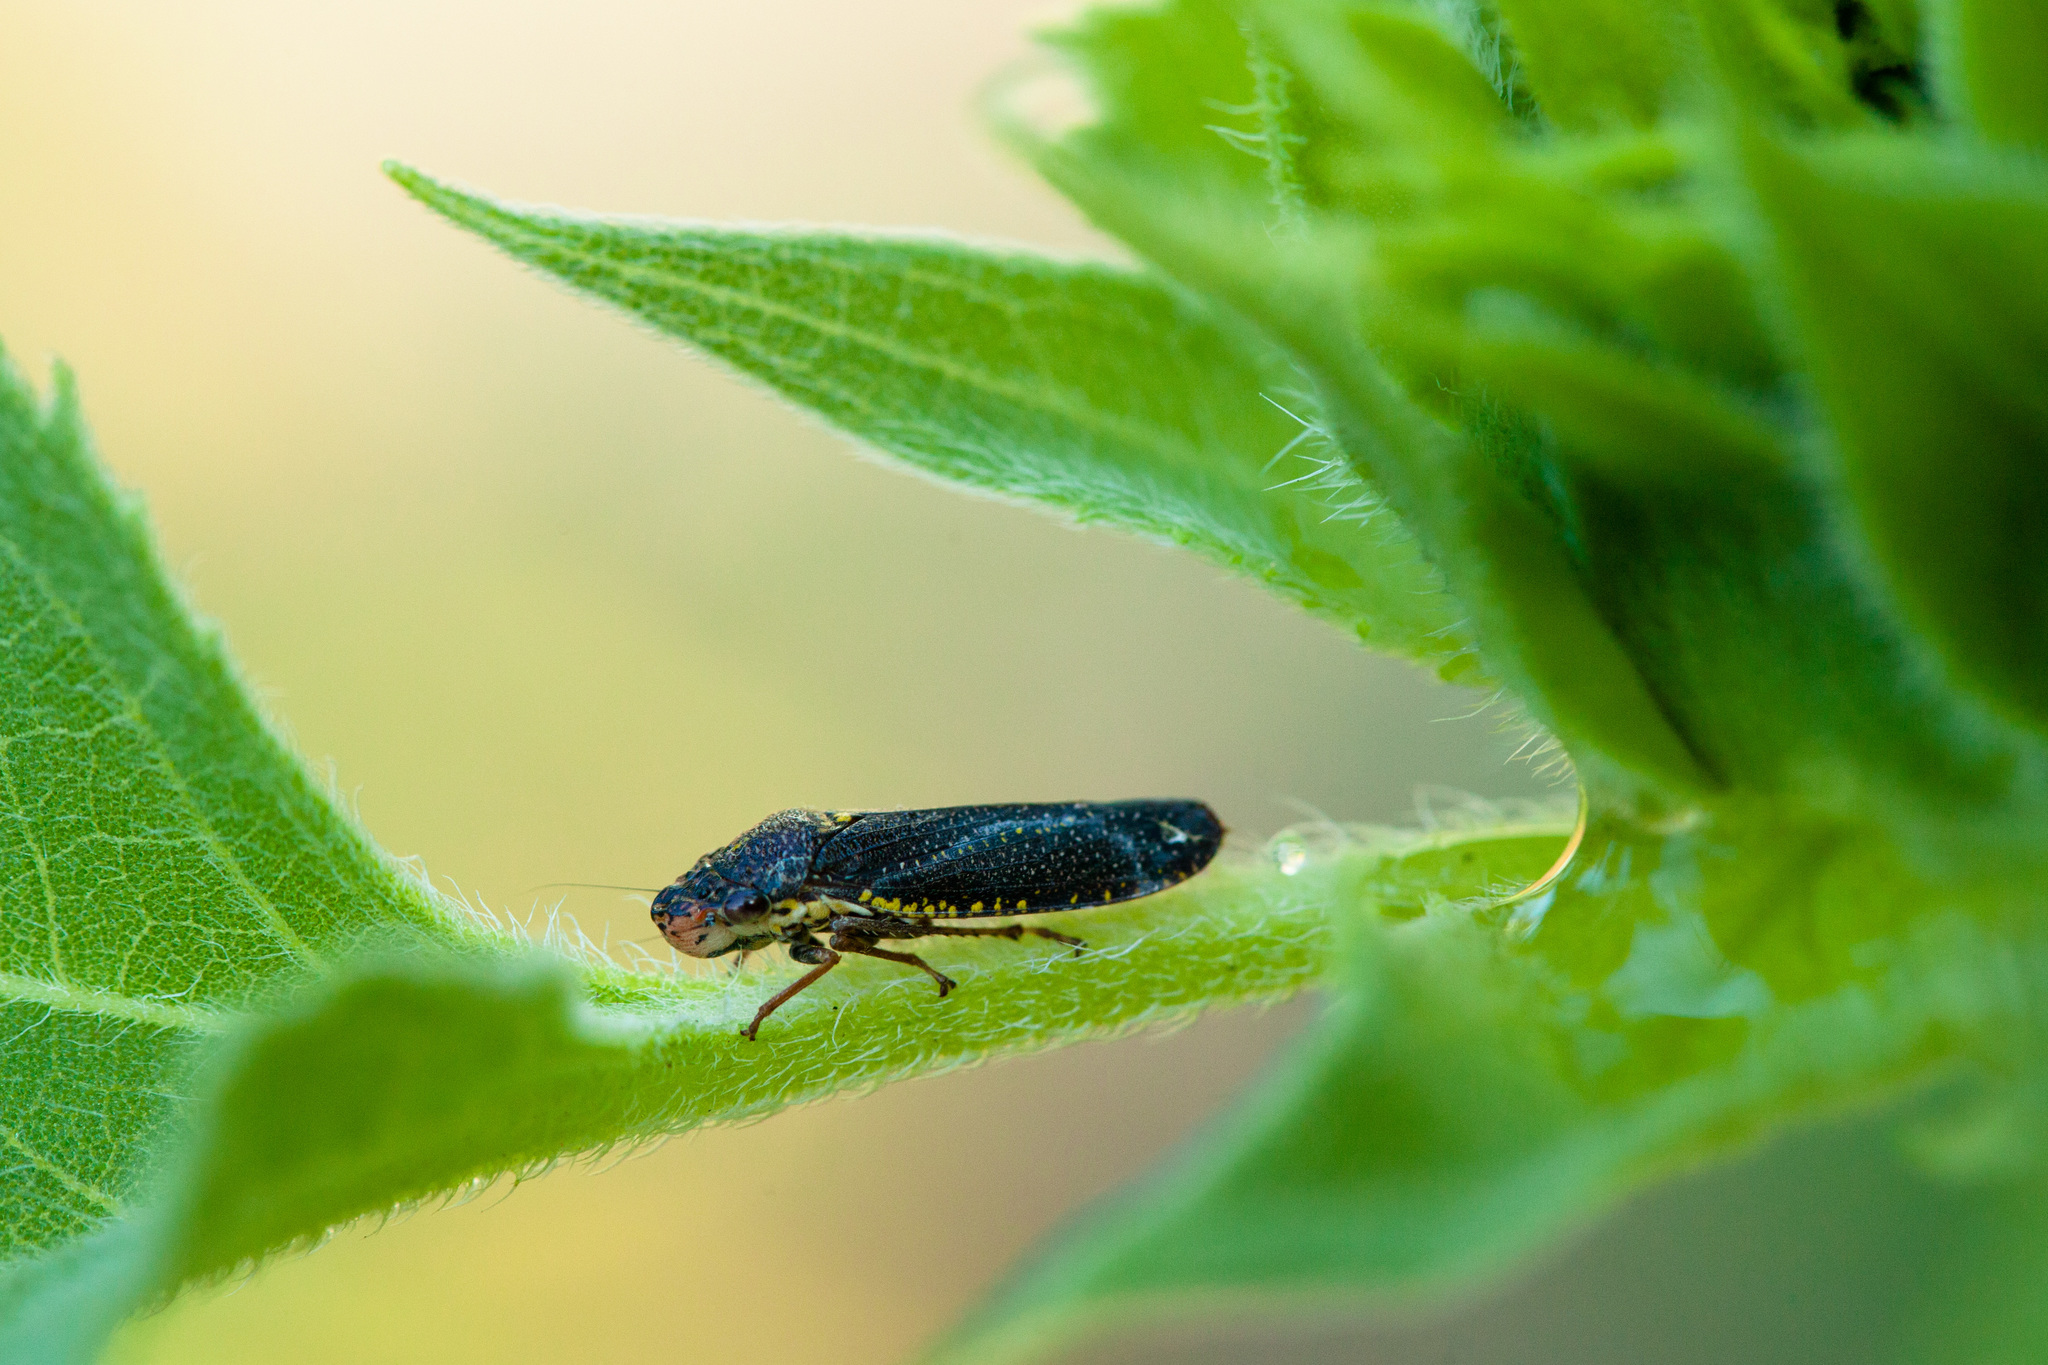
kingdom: Animalia
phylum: Arthropoda
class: Insecta
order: Hemiptera
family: Cicadellidae
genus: Paraulacizes
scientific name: Paraulacizes irrorata
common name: Speckled sharpshooter
